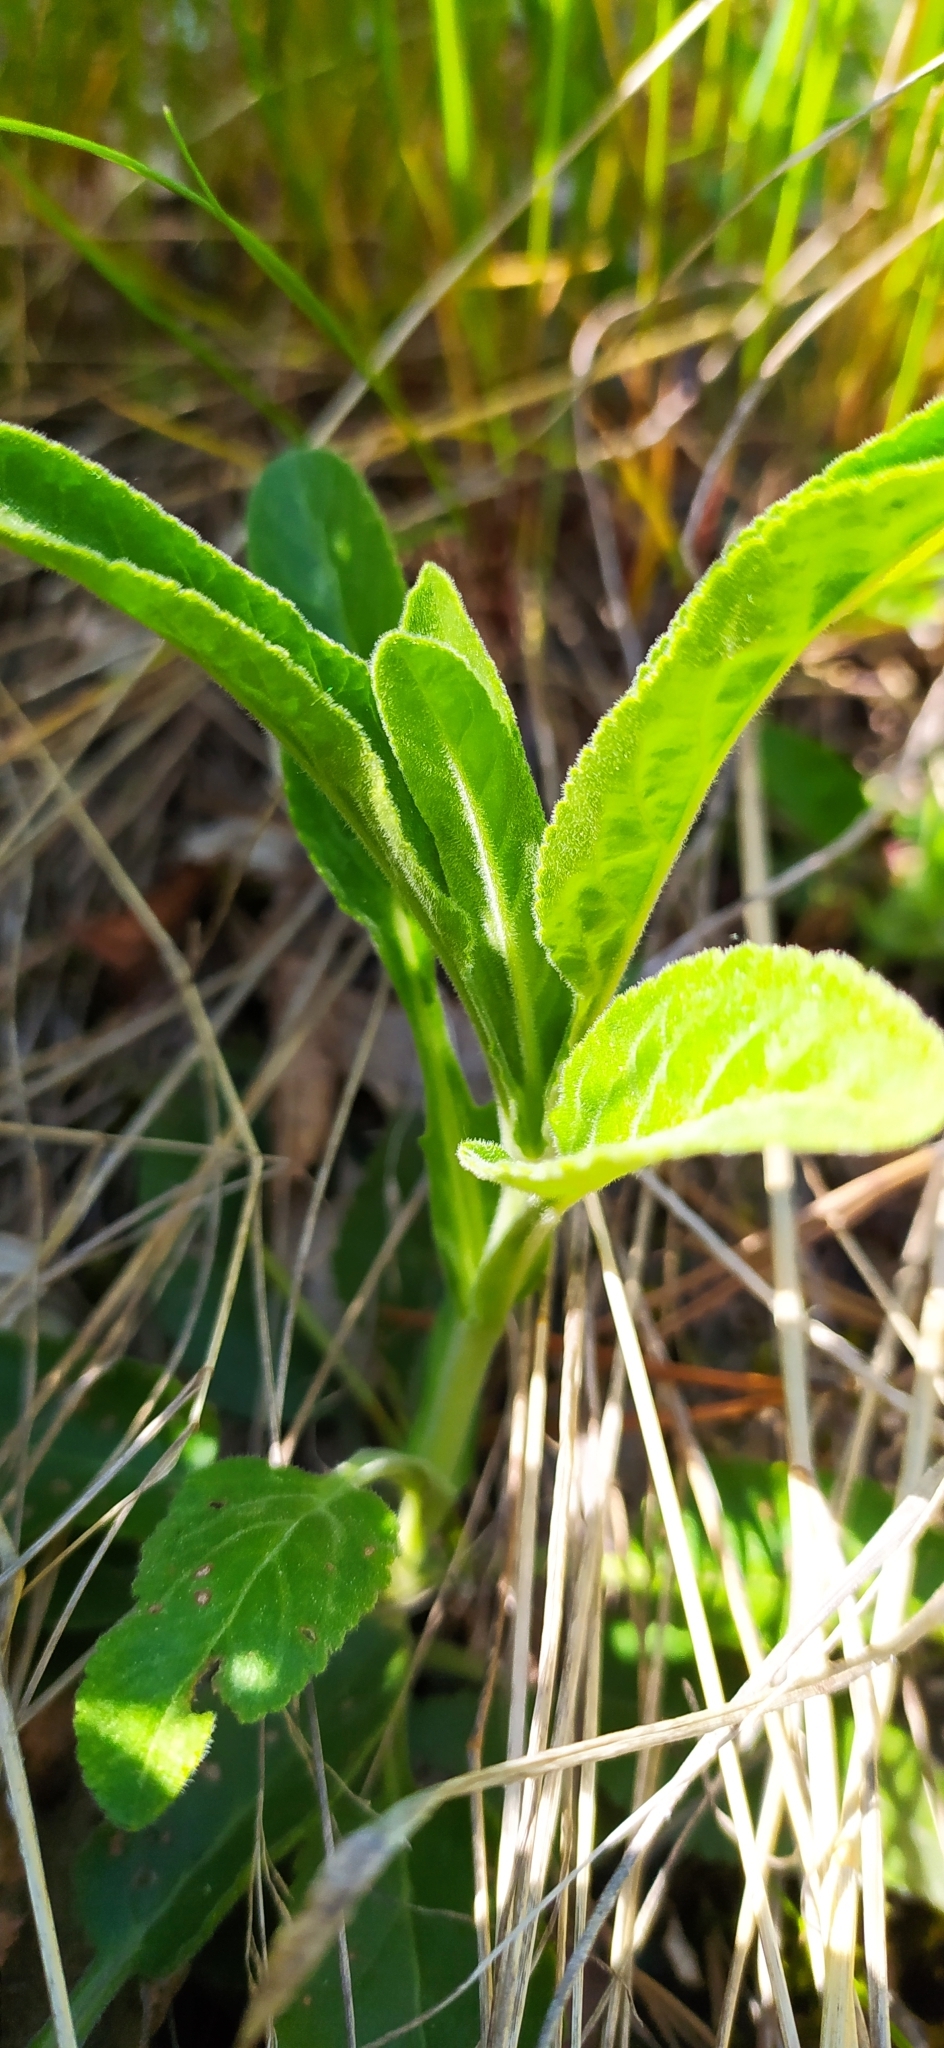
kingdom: Plantae
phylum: Tracheophyta
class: Magnoliopsida
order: Lamiales
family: Plantaginaceae
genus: Veronica
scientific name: Veronica spicata
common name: Spiked speedwell
